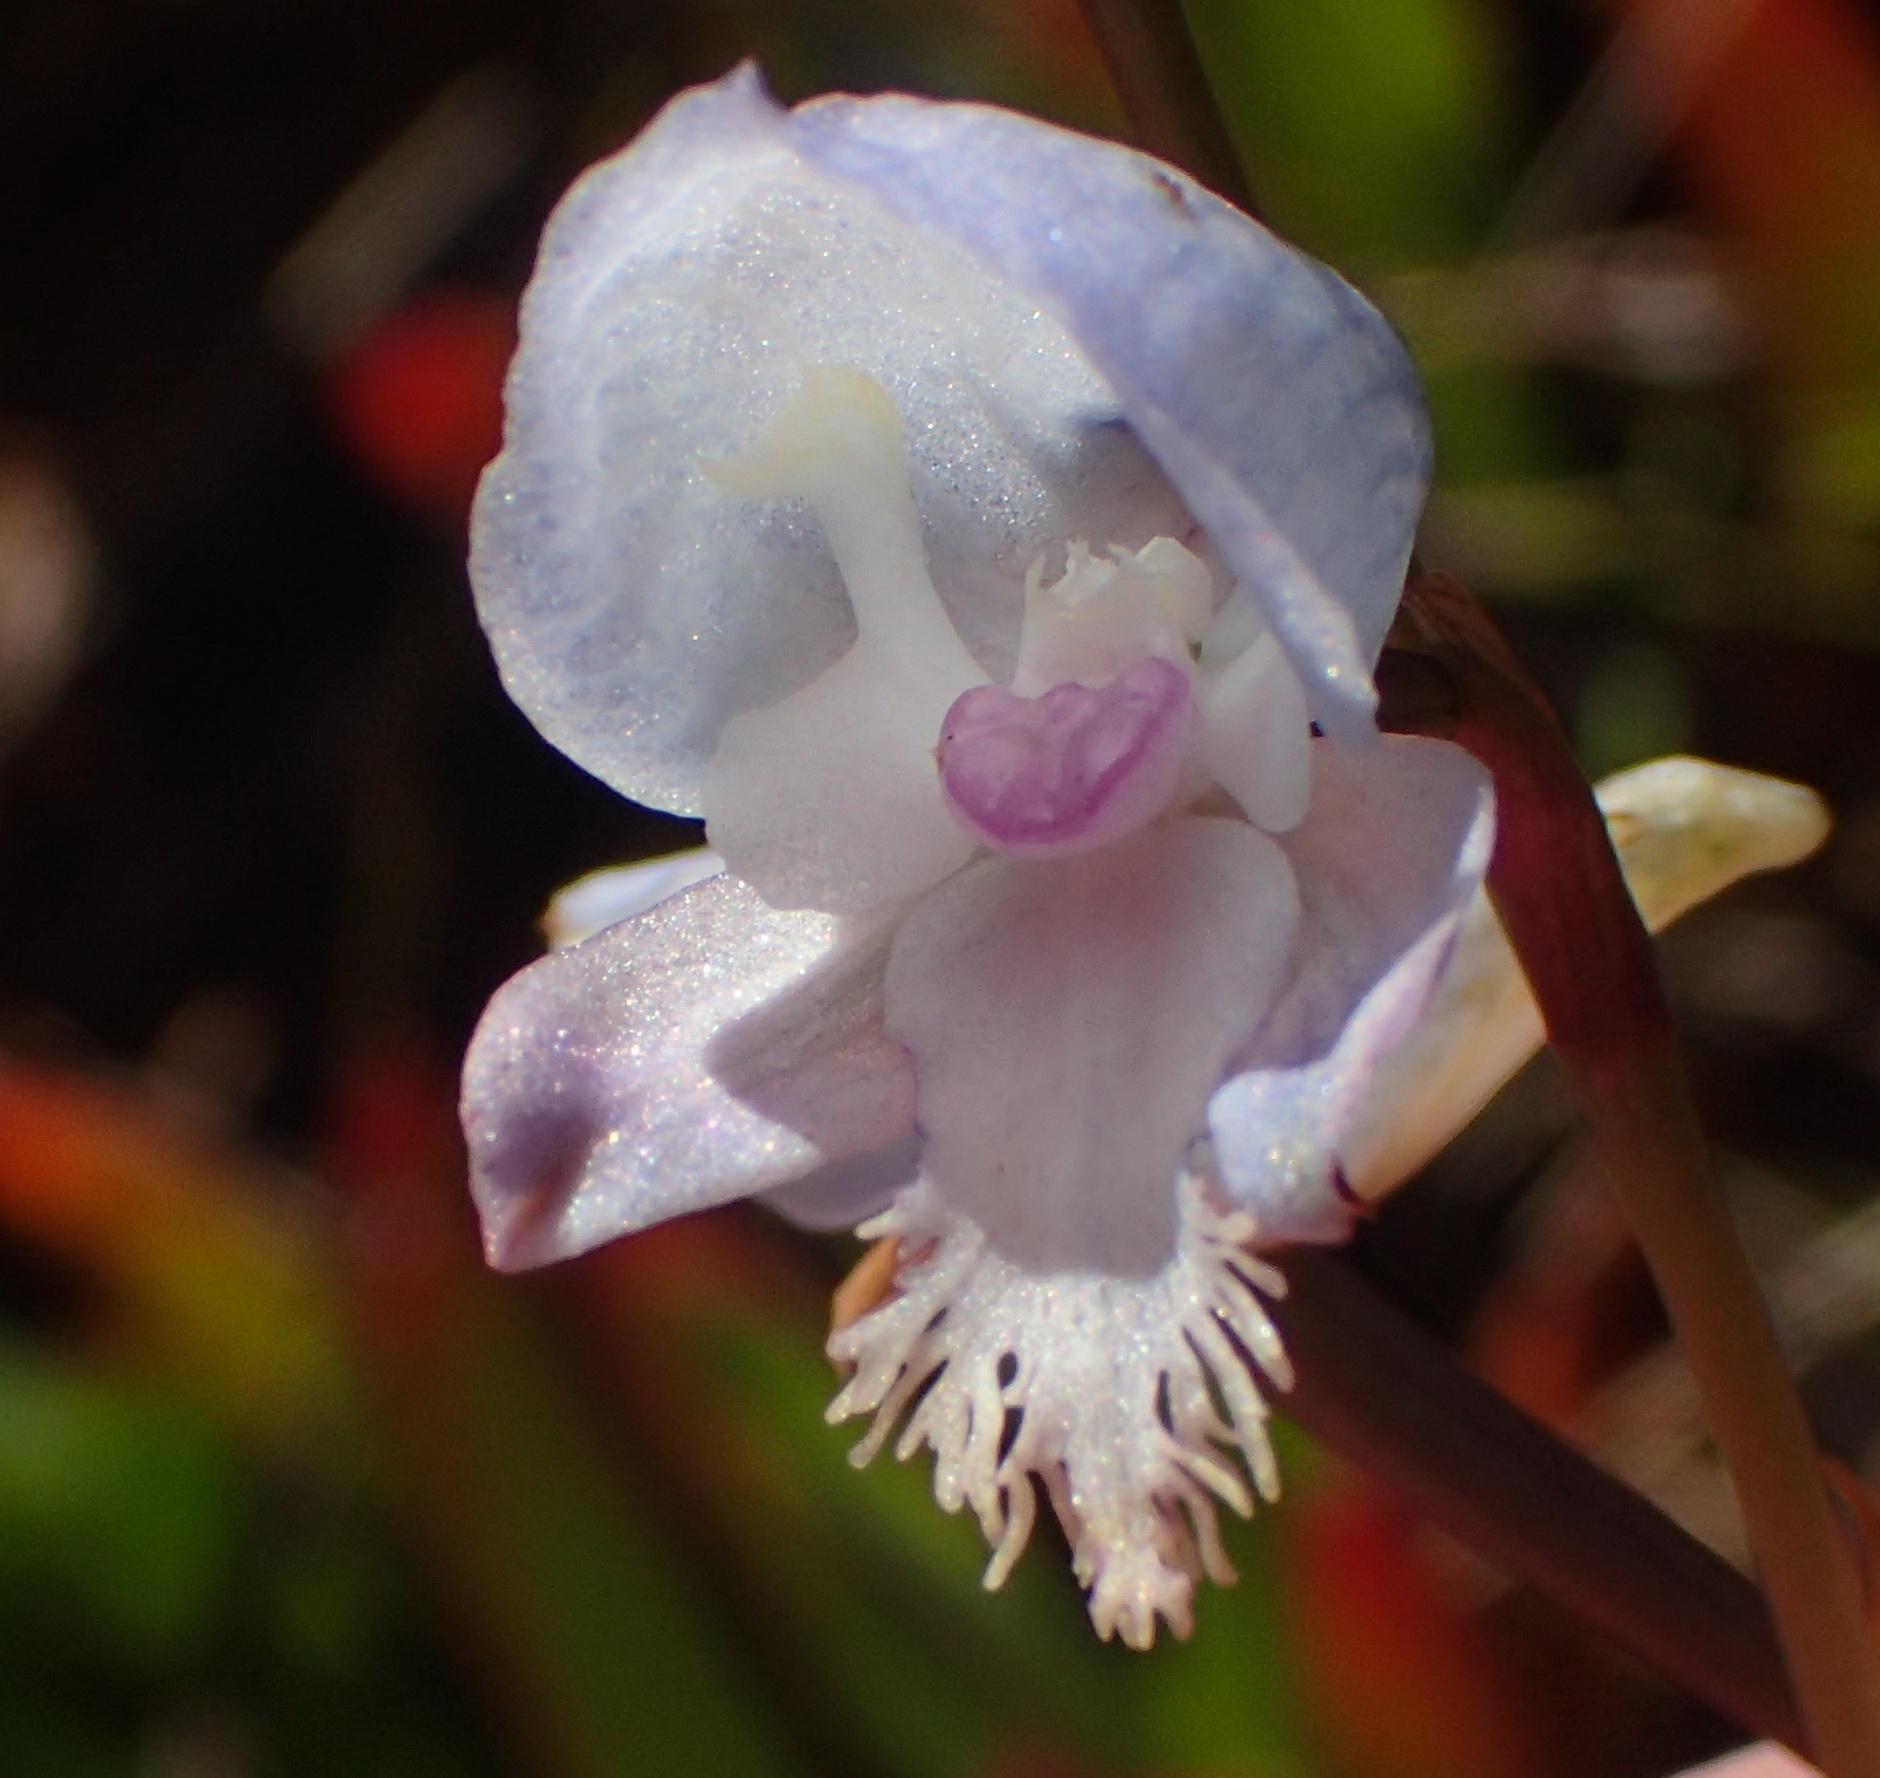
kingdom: Plantae
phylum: Tracheophyta
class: Liliopsida
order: Asparagales
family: Orchidaceae
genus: Disa
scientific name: Disa hians
